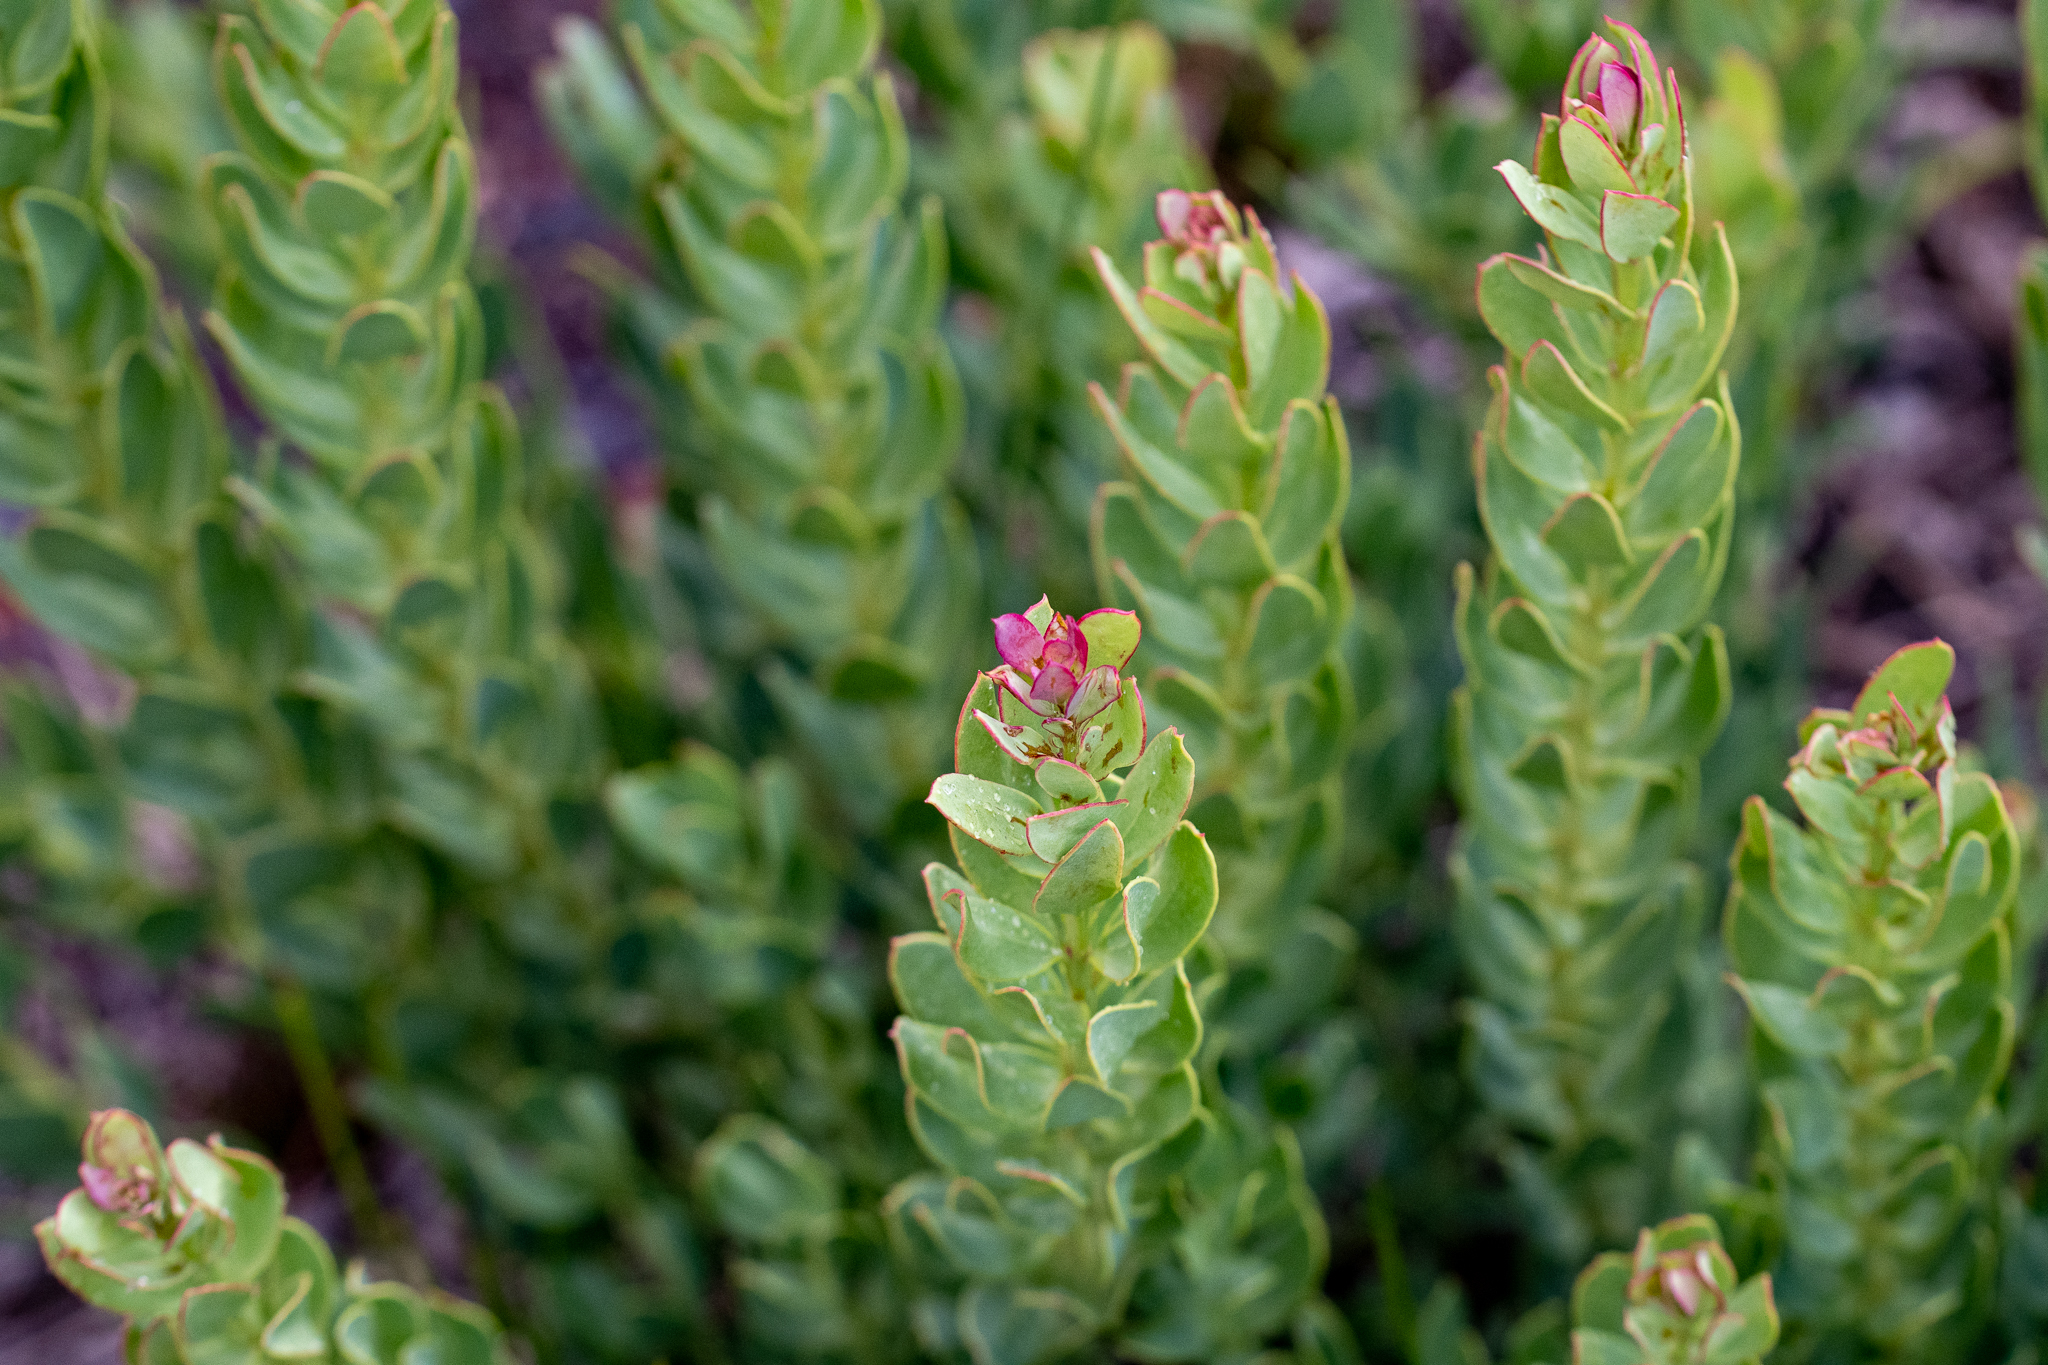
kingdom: Plantae
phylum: Tracheophyta
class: Magnoliopsida
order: Santalales
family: Santalaceae
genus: Osyris
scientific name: Osyris compressa
